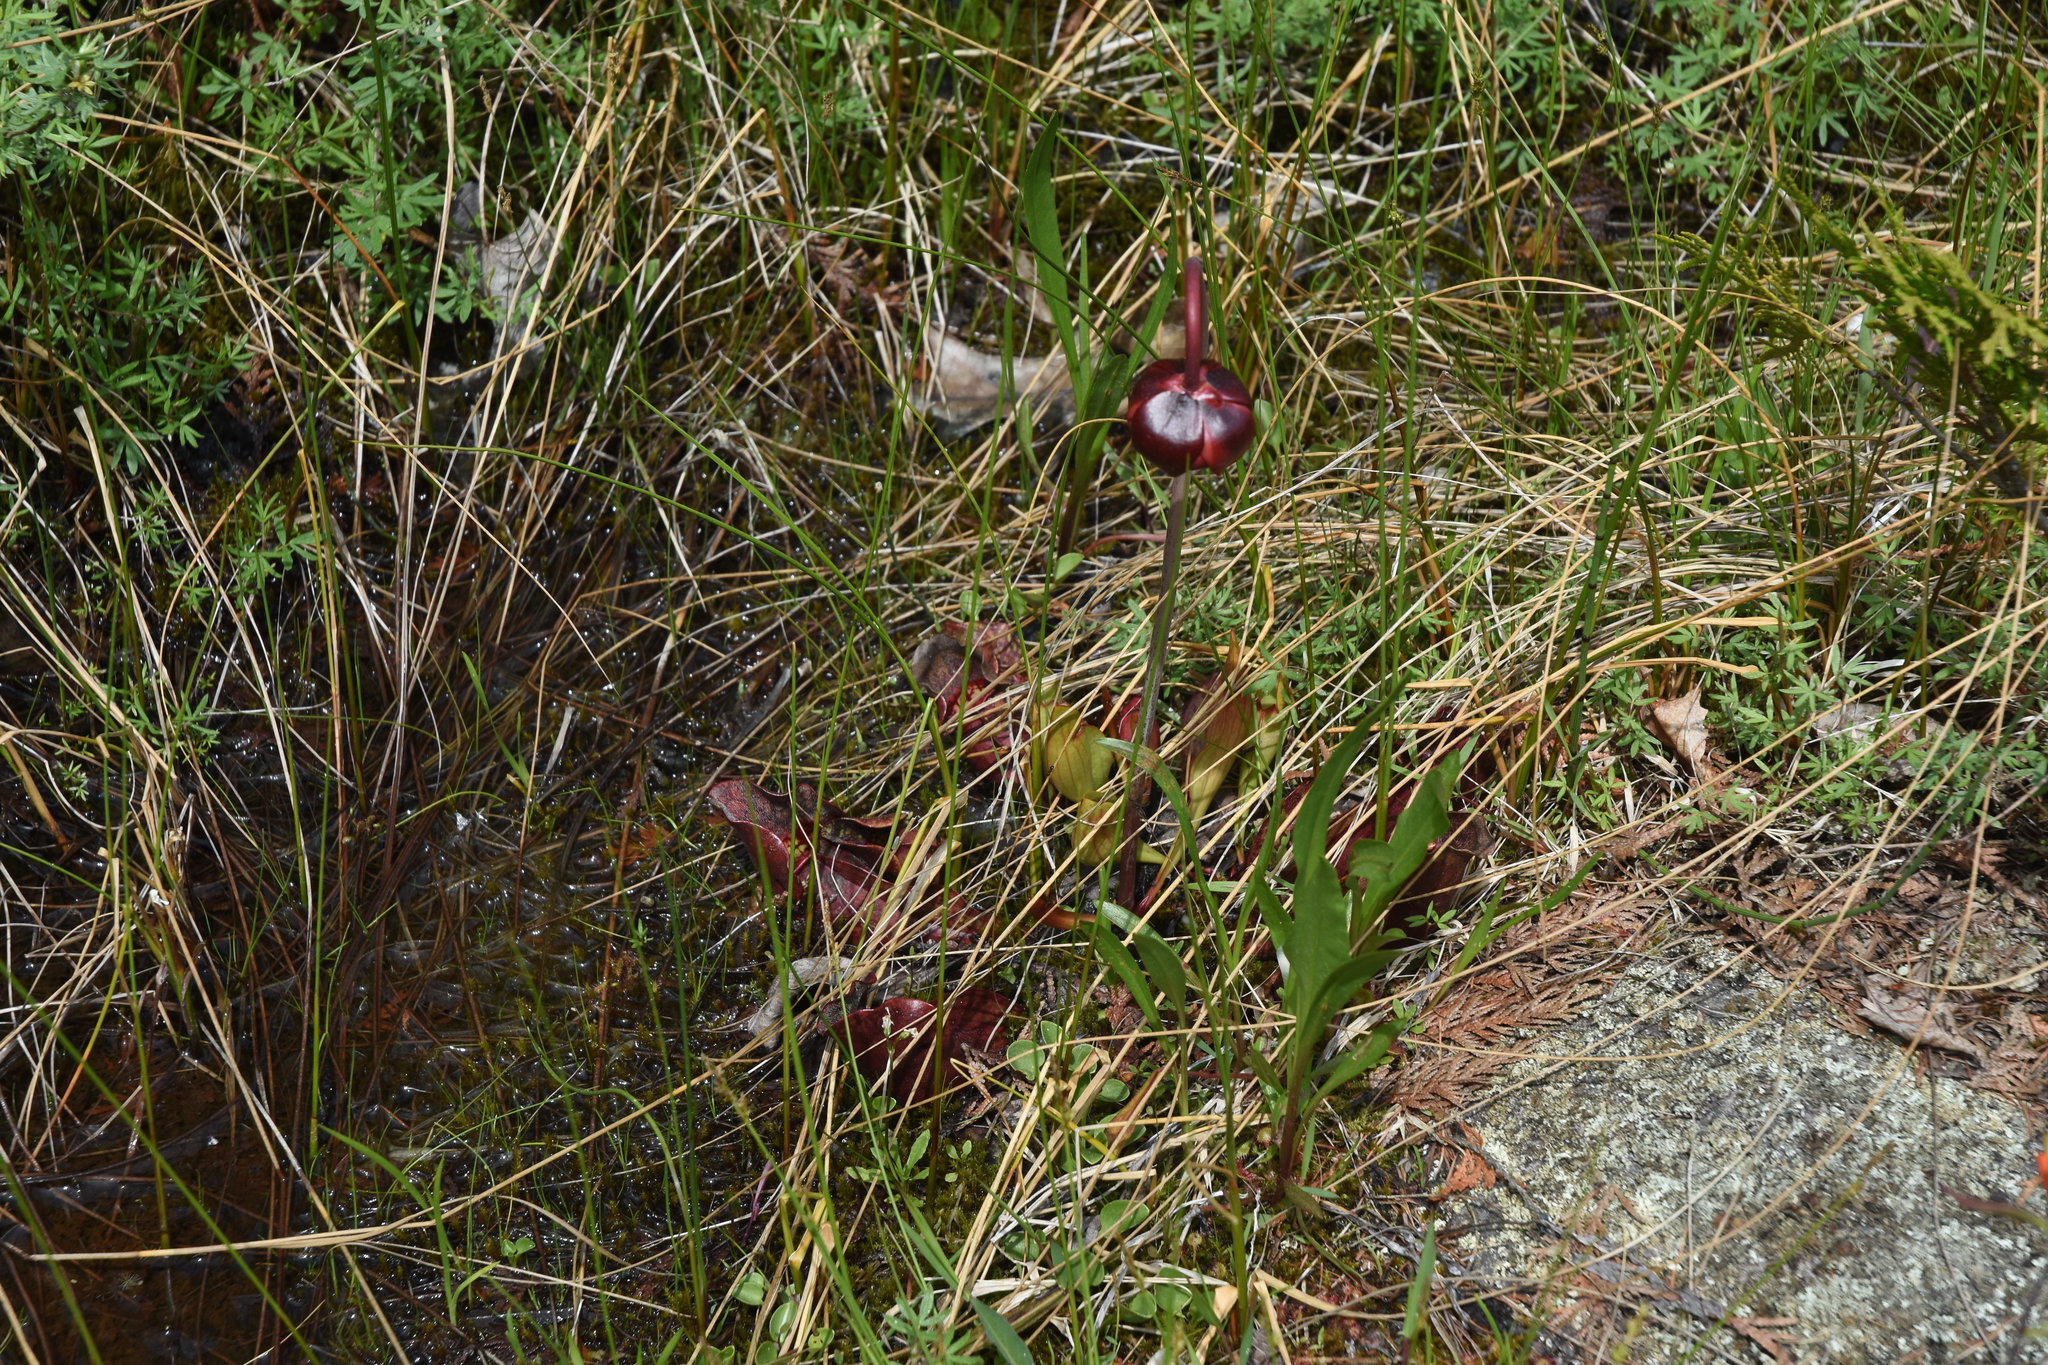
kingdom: Plantae
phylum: Tracheophyta
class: Magnoliopsida
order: Ericales
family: Sarraceniaceae
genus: Sarracenia
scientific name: Sarracenia purpurea
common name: Pitcherplant
